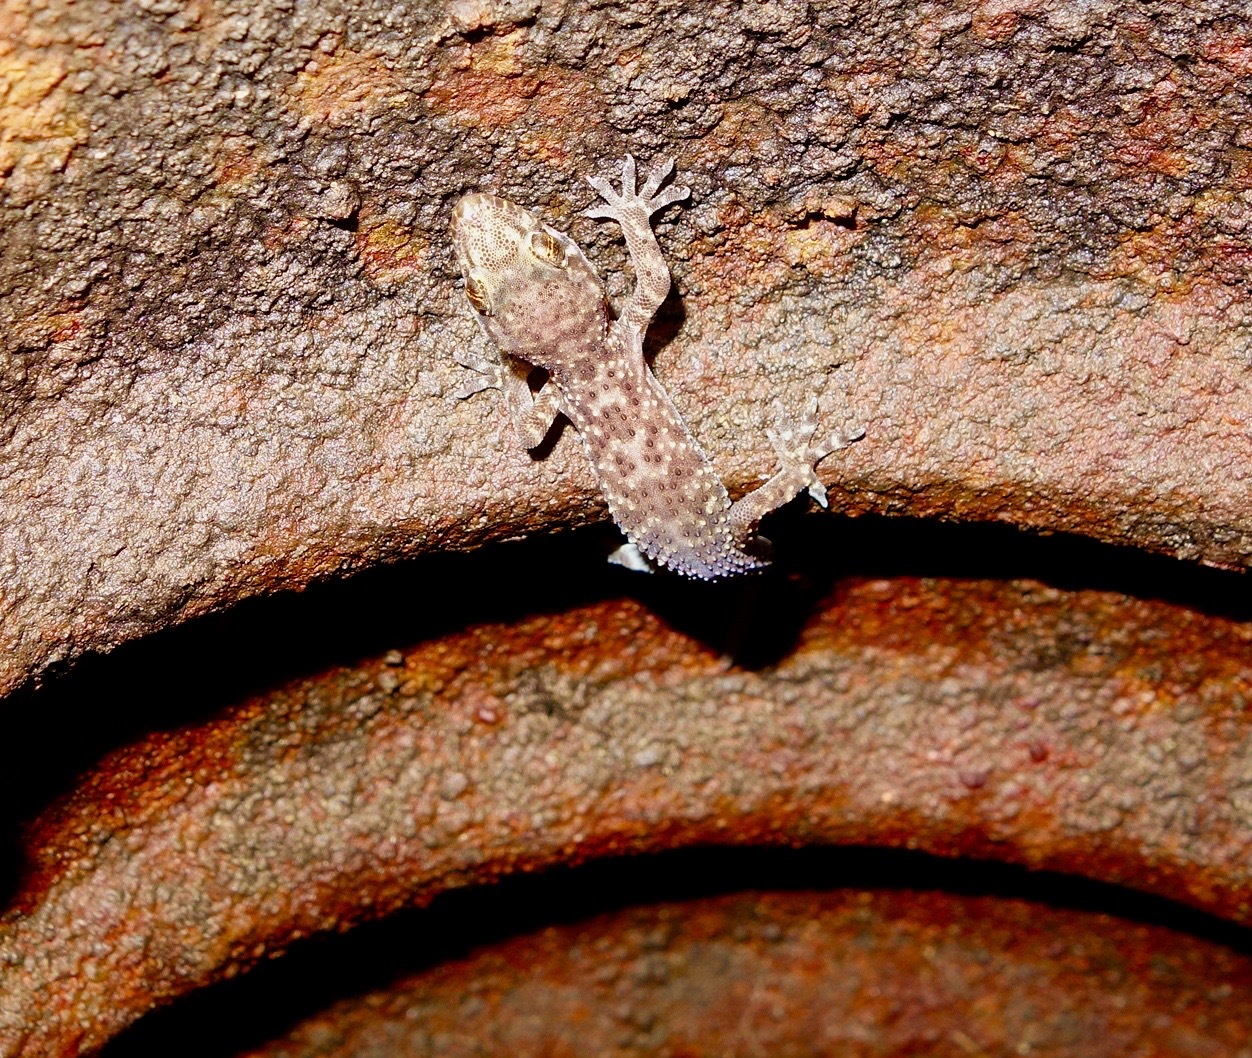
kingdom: Animalia
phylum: Chordata
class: Squamata
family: Gekkonidae
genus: Hemidactylus
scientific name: Hemidactylus turcicus
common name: Turkish gecko
